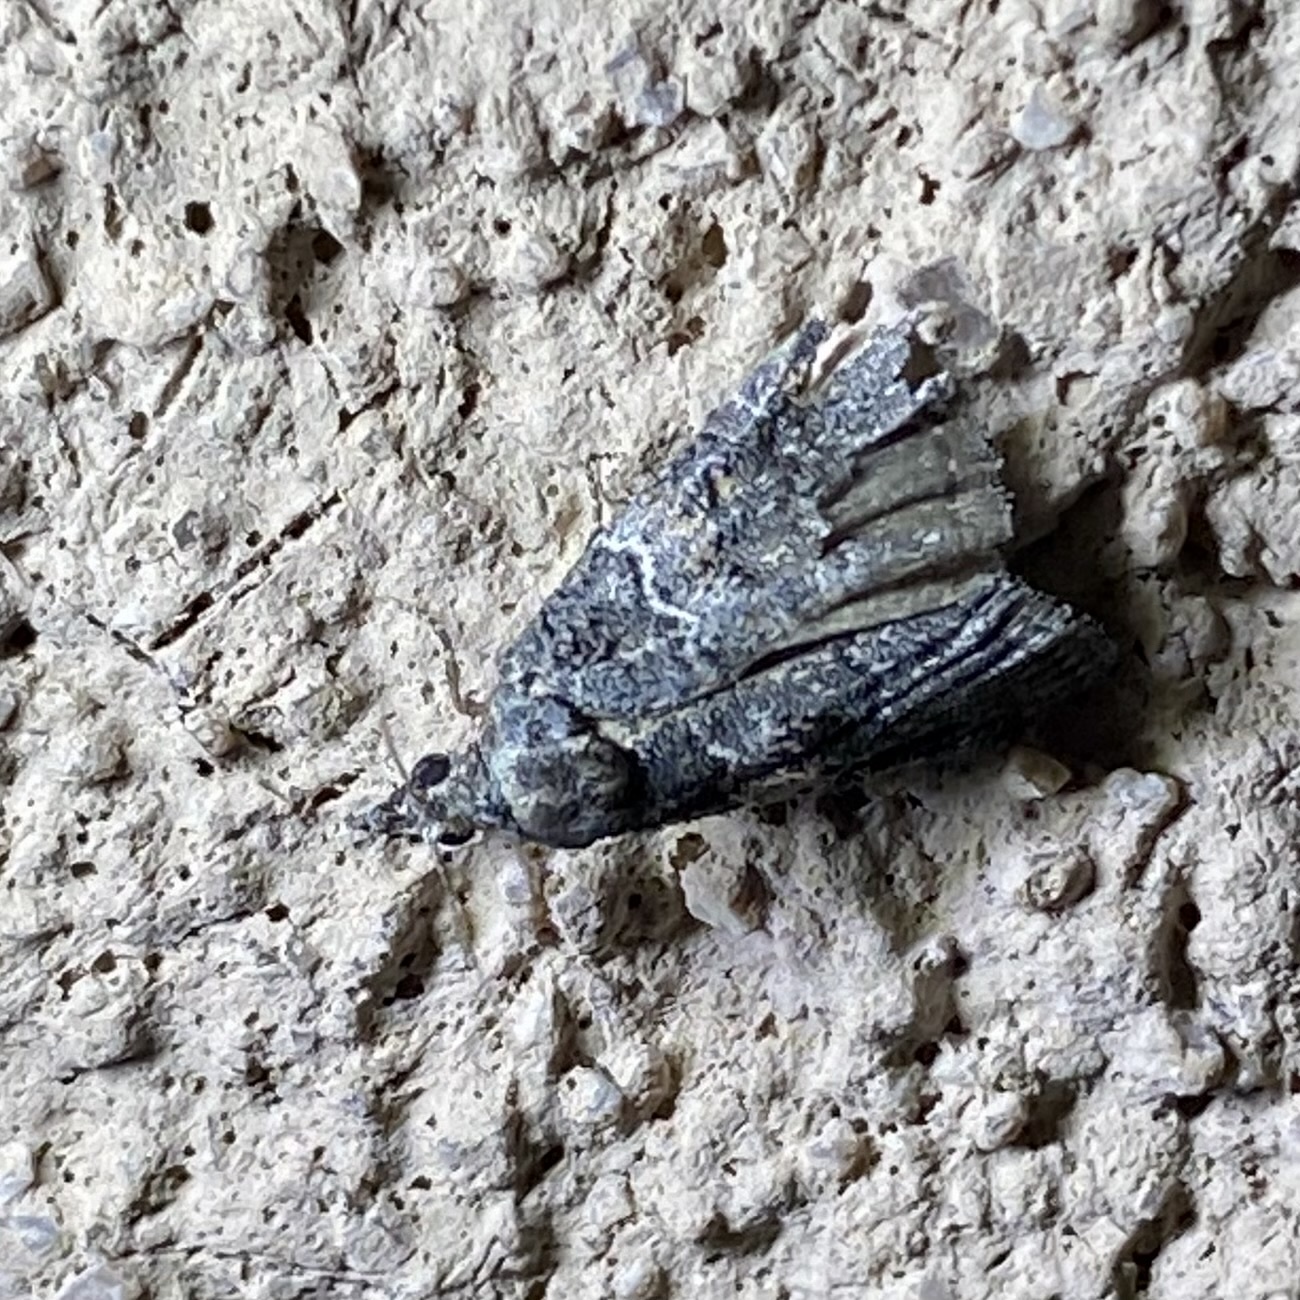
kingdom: Animalia
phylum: Arthropoda
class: Insecta
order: Lepidoptera
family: Pyralidae
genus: Satole
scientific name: Satole ligniperdalis
